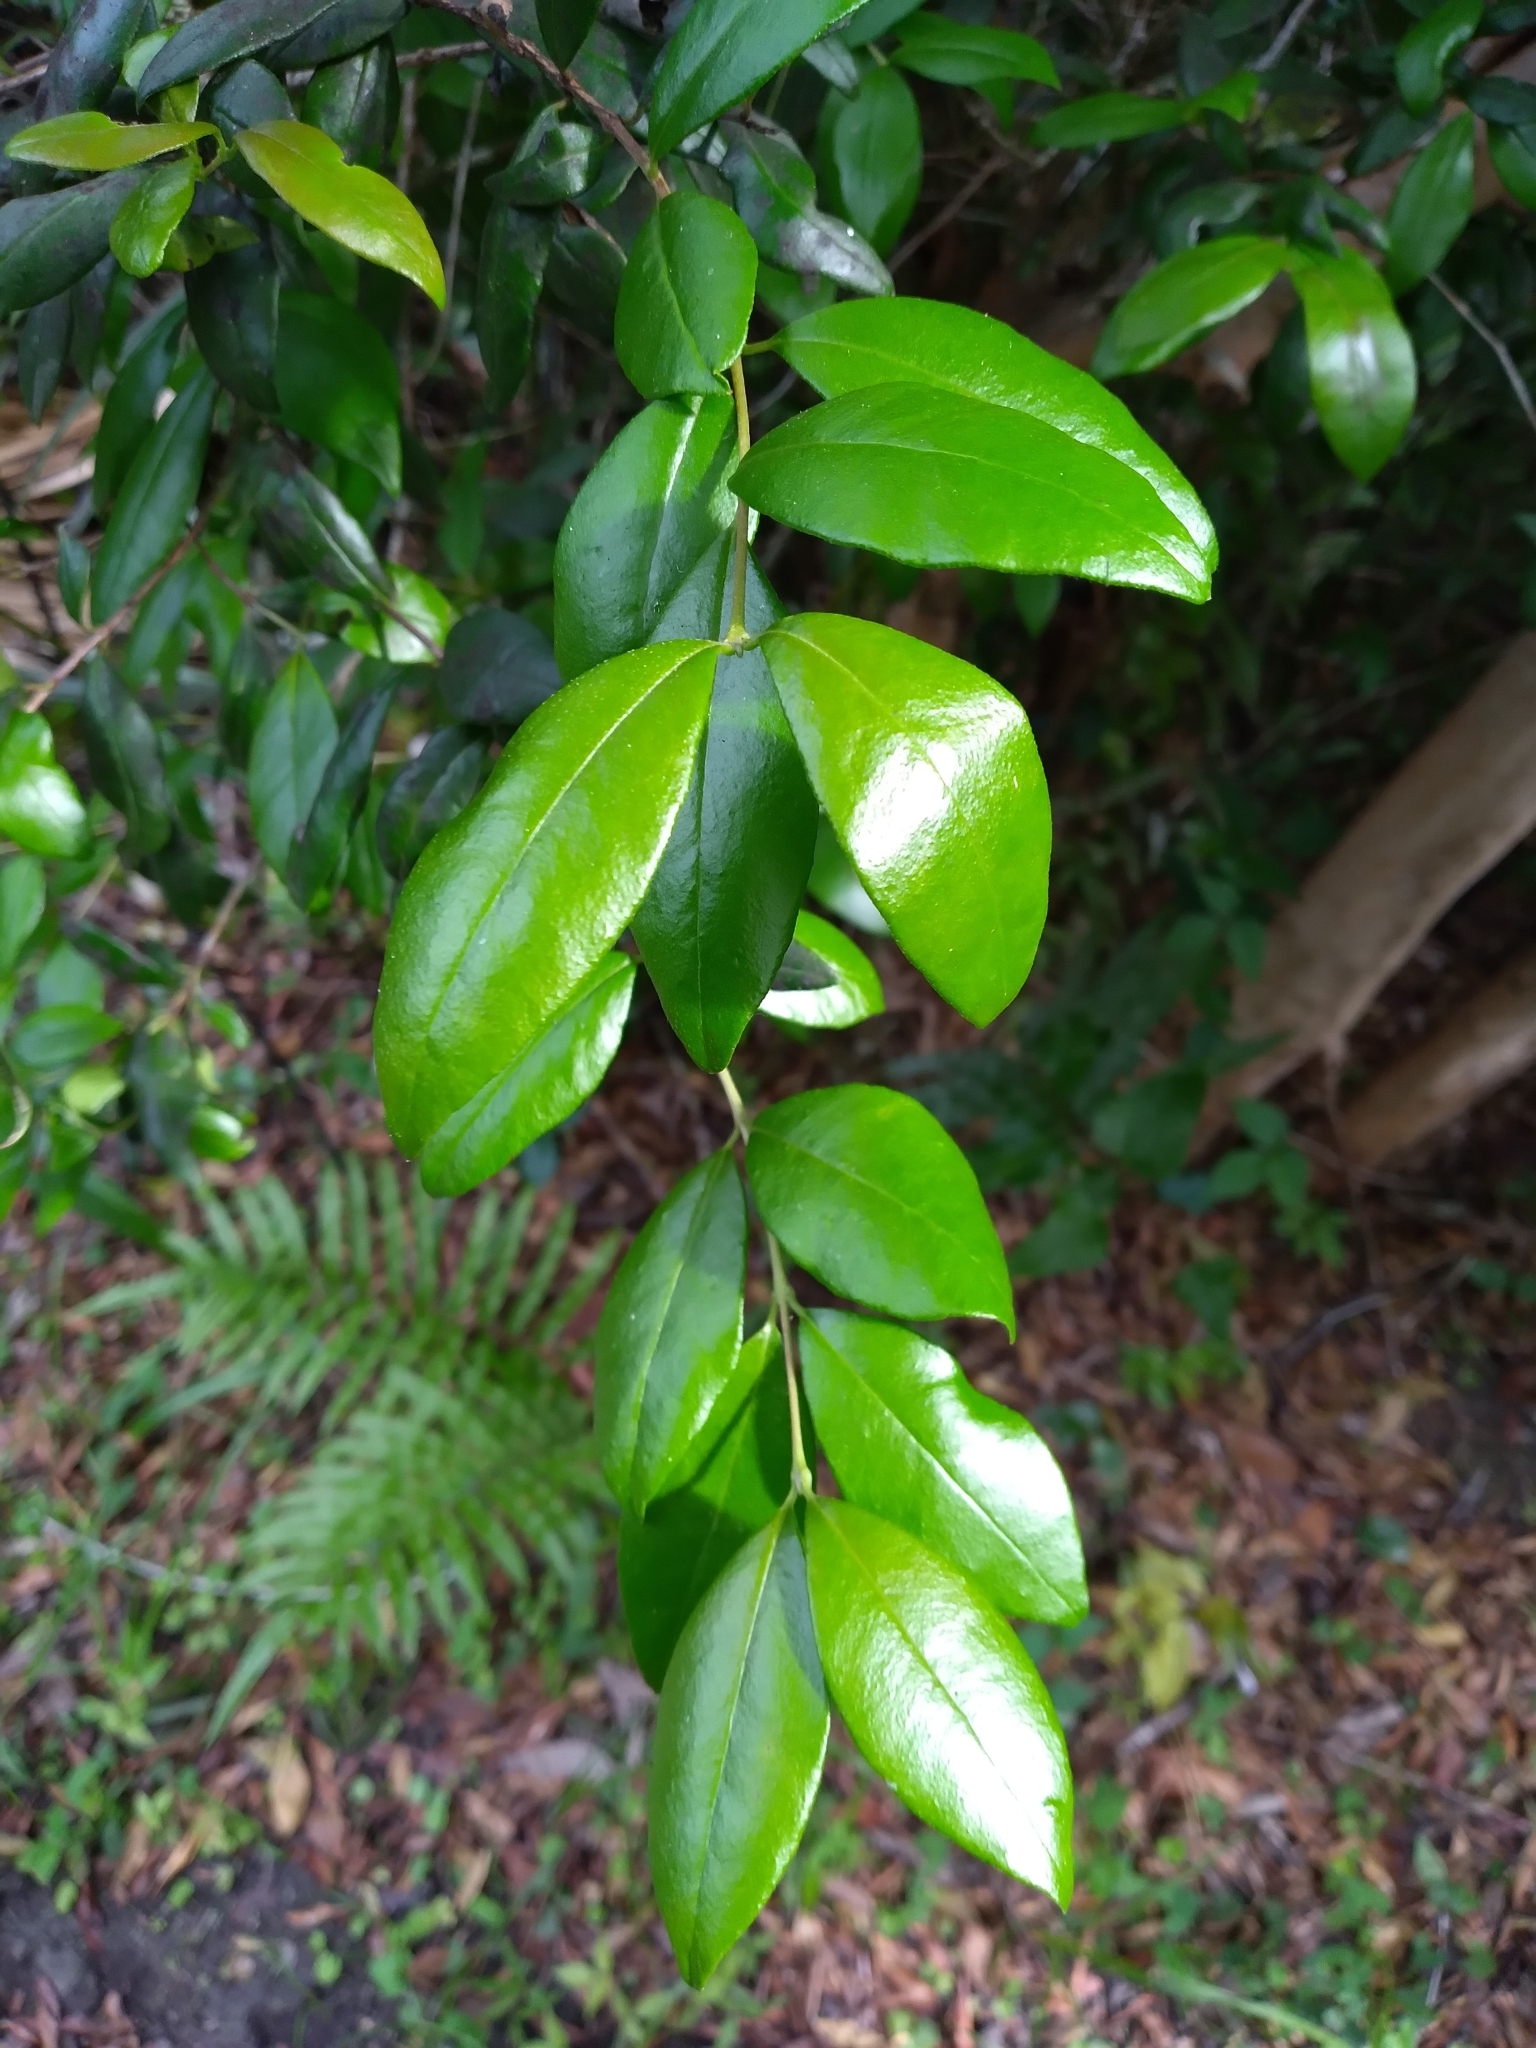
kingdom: Plantae
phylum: Tracheophyta
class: Magnoliopsida
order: Myrtales
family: Myrtaceae
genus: Myrcianthes
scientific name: Myrcianthes fragrans
